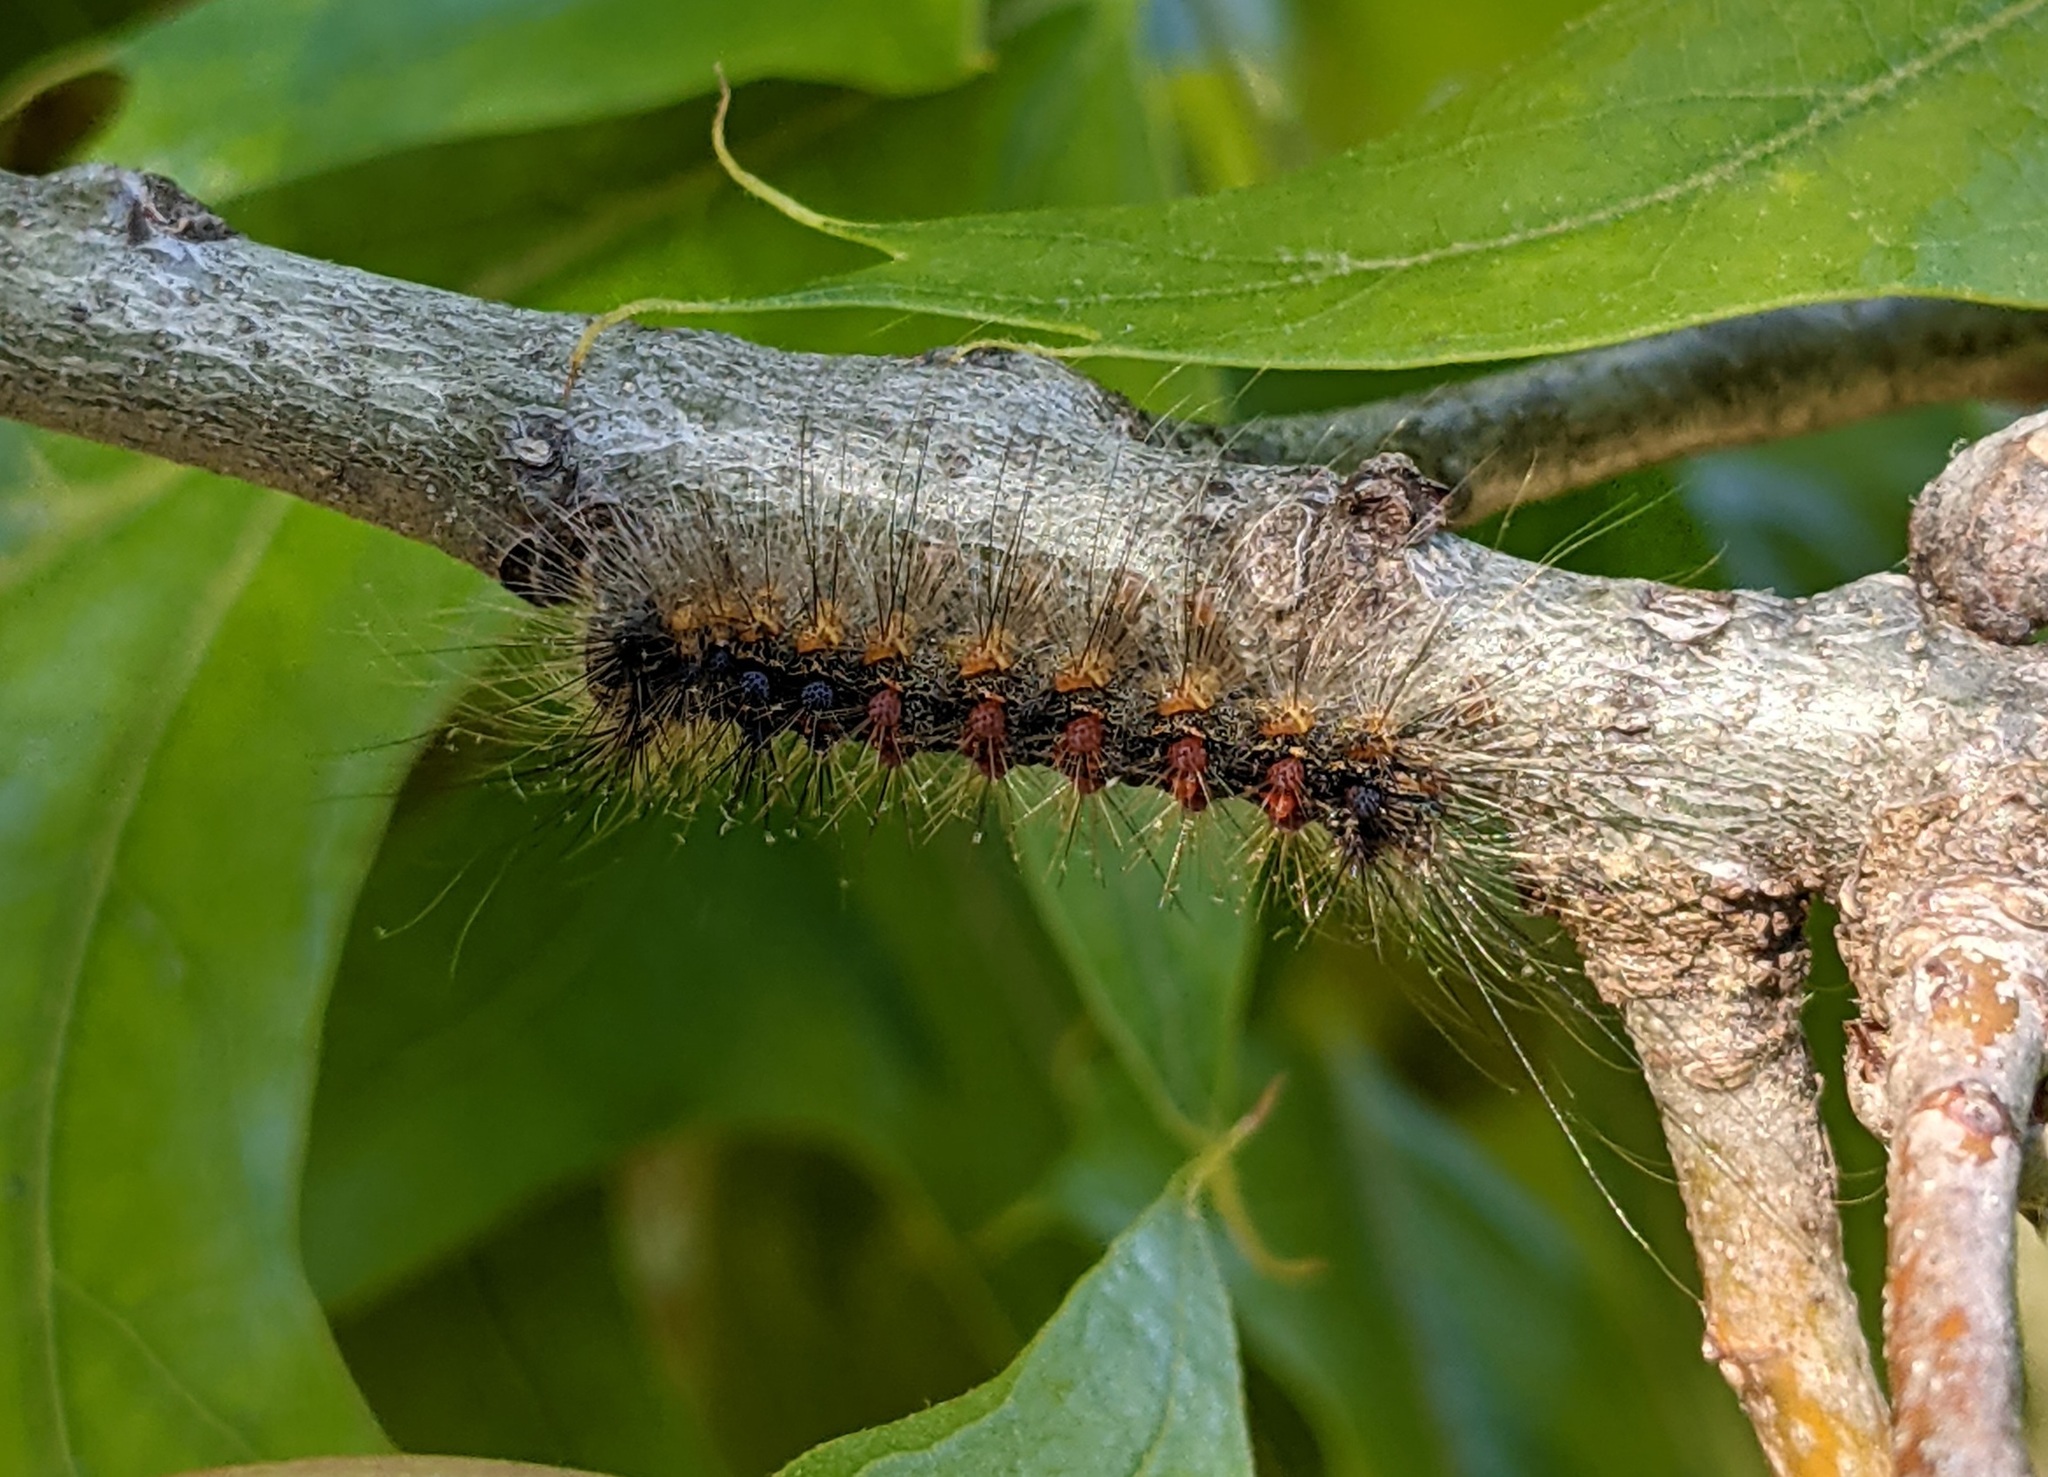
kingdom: Animalia
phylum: Arthropoda
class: Insecta
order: Lepidoptera
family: Erebidae
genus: Lymantria
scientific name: Lymantria dispar
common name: Gypsy moth
